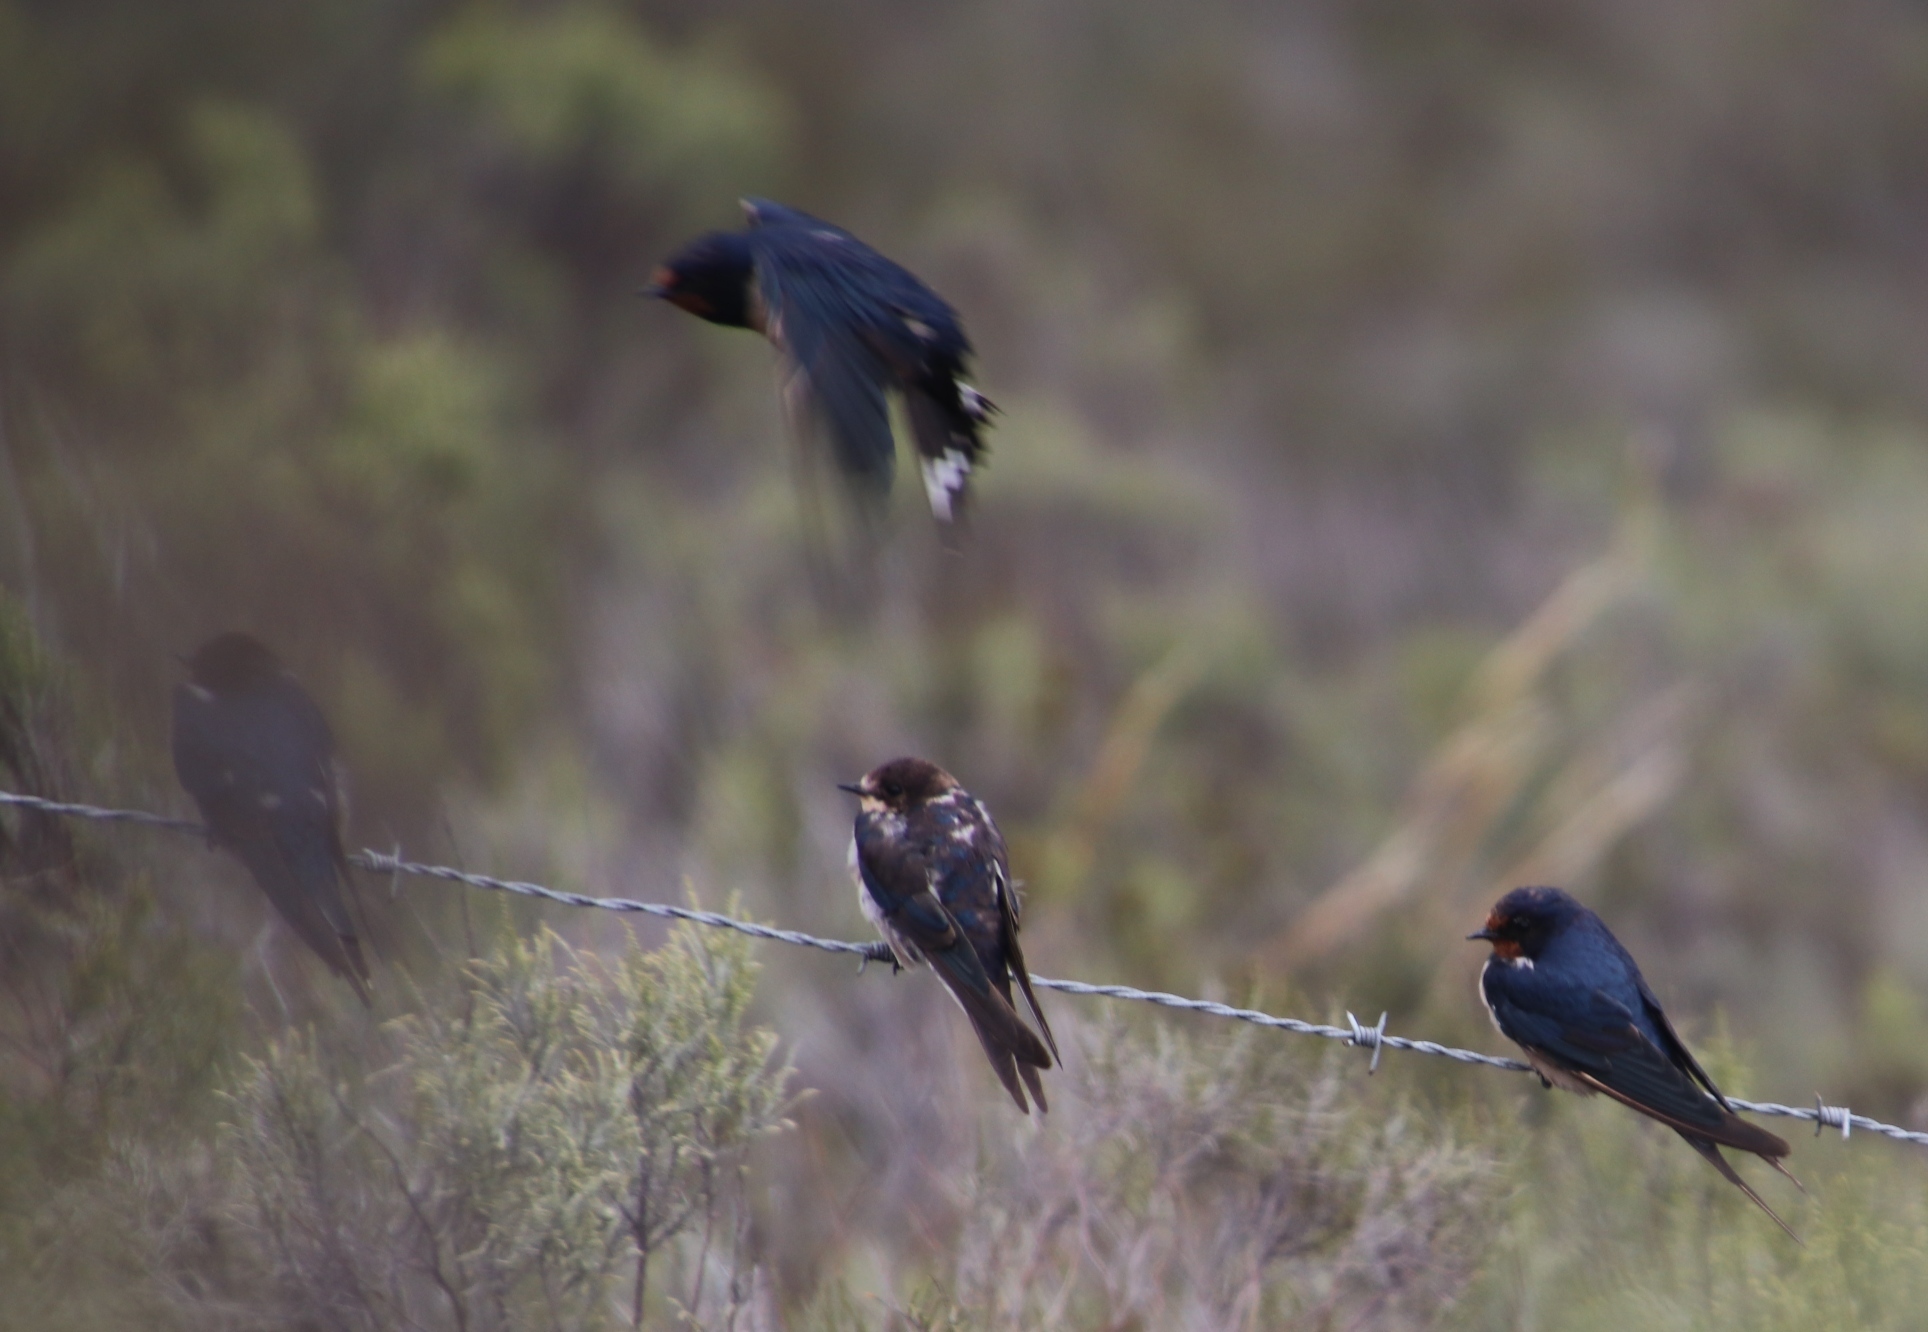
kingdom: Animalia
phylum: Chordata
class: Aves
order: Passeriformes
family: Hirundinidae
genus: Hirundo
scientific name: Hirundo rustica
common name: Barn swallow
